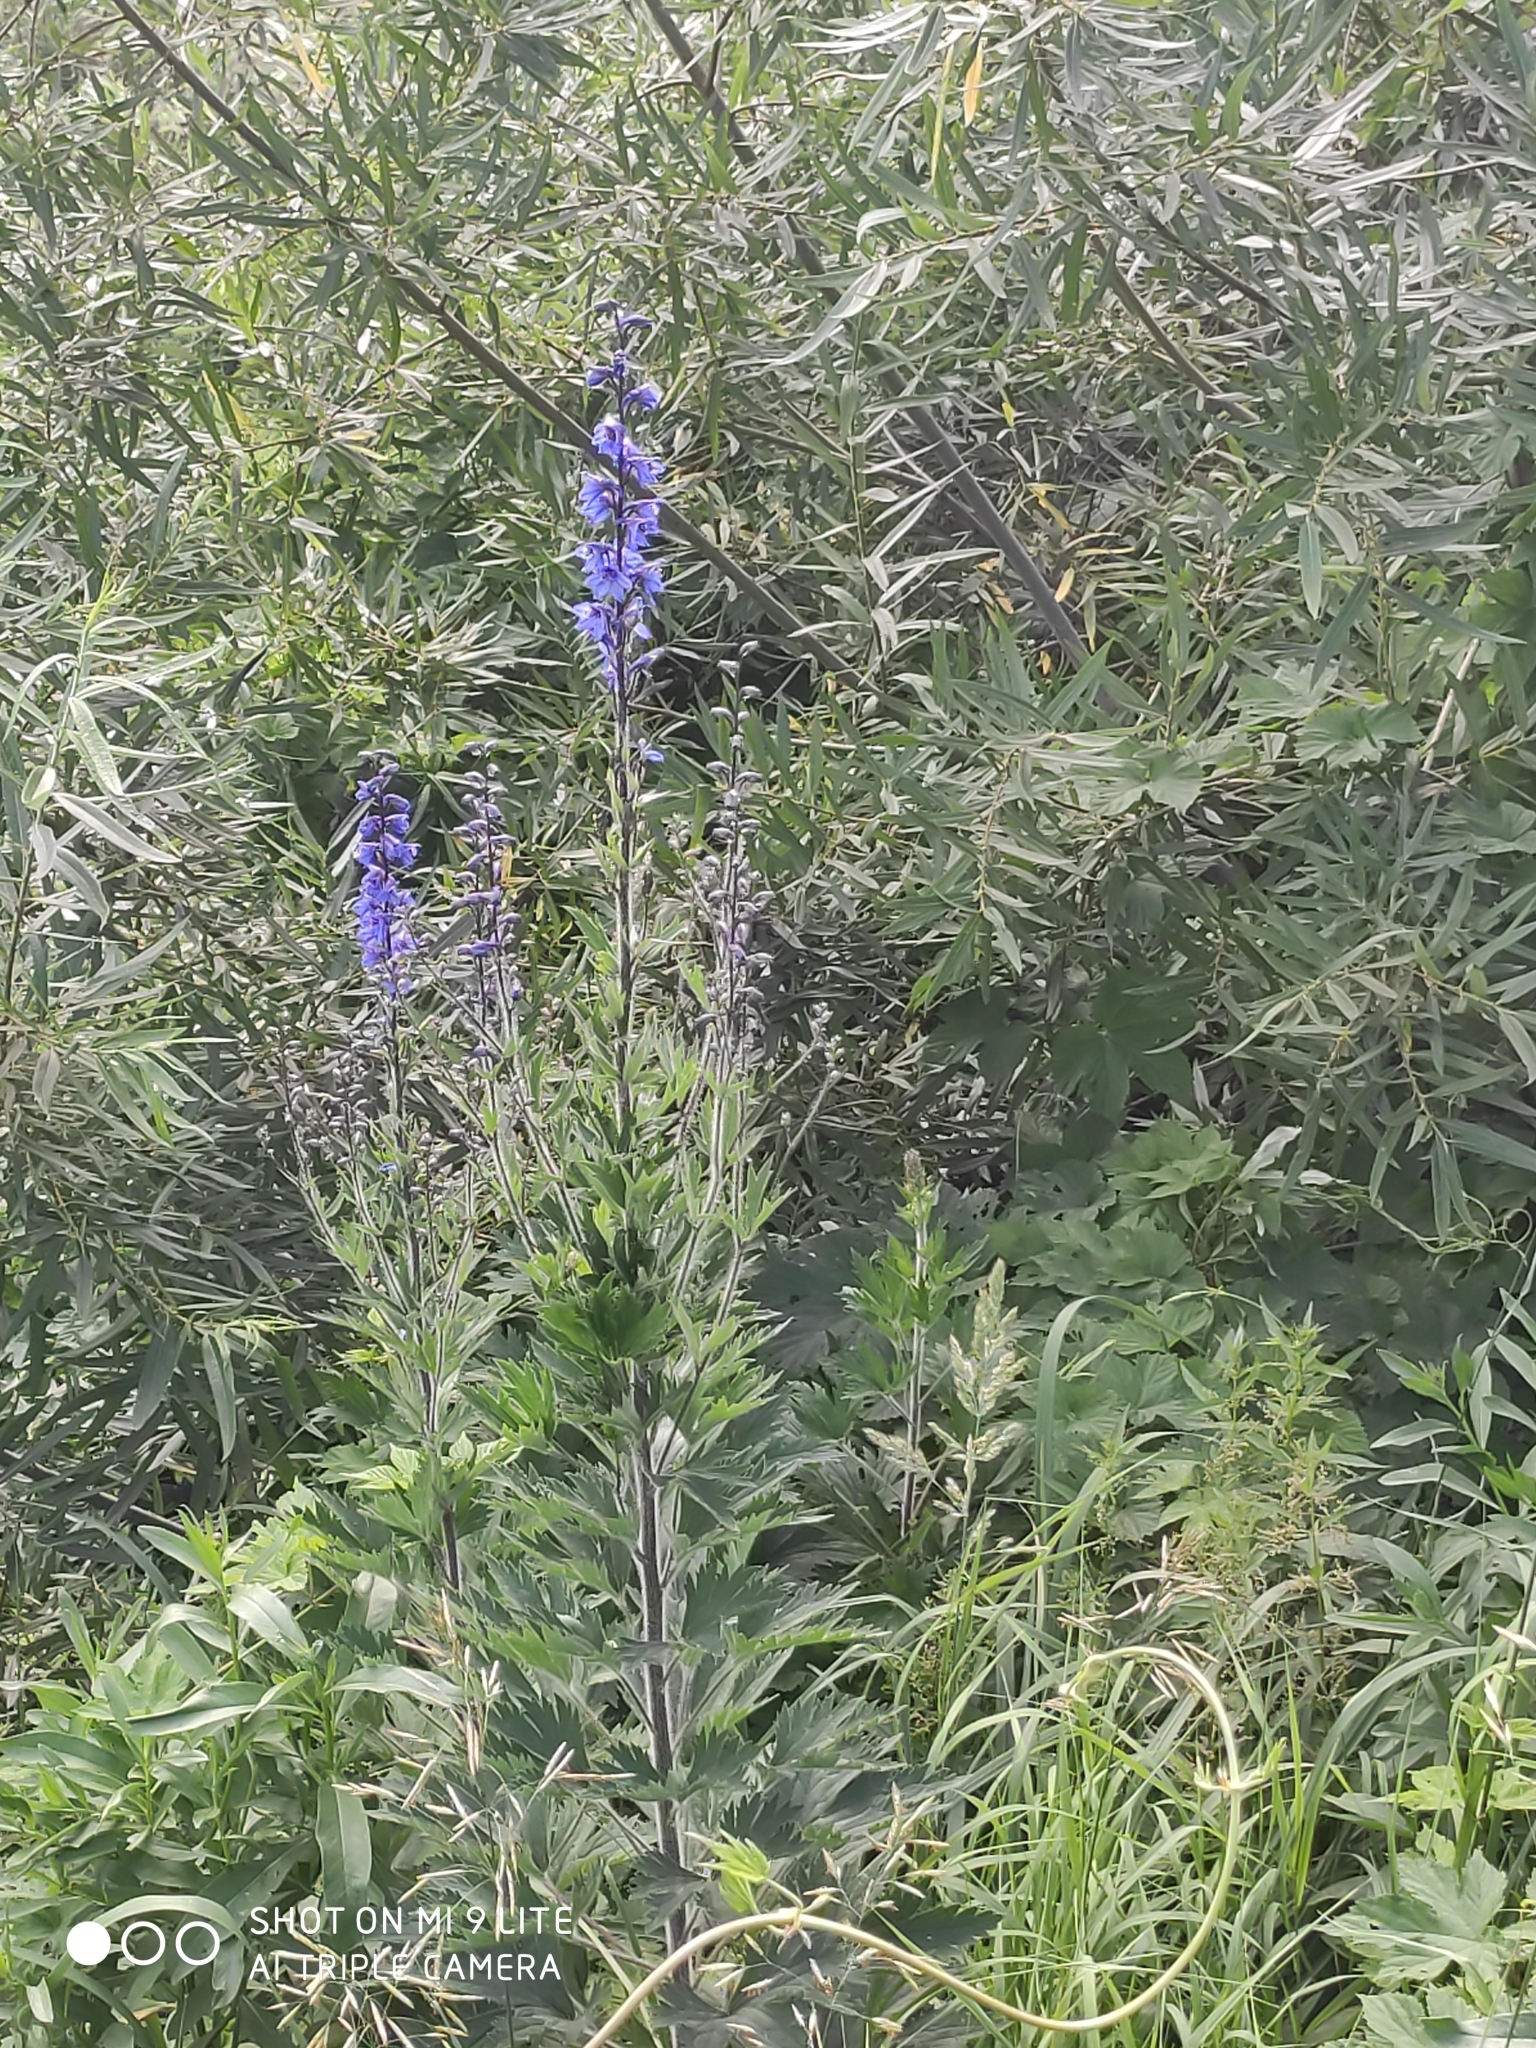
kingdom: Plantae
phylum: Tracheophyta
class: Magnoliopsida
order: Ranunculales
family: Ranunculaceae
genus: Delphinium
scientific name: Delphinium retropilosum
